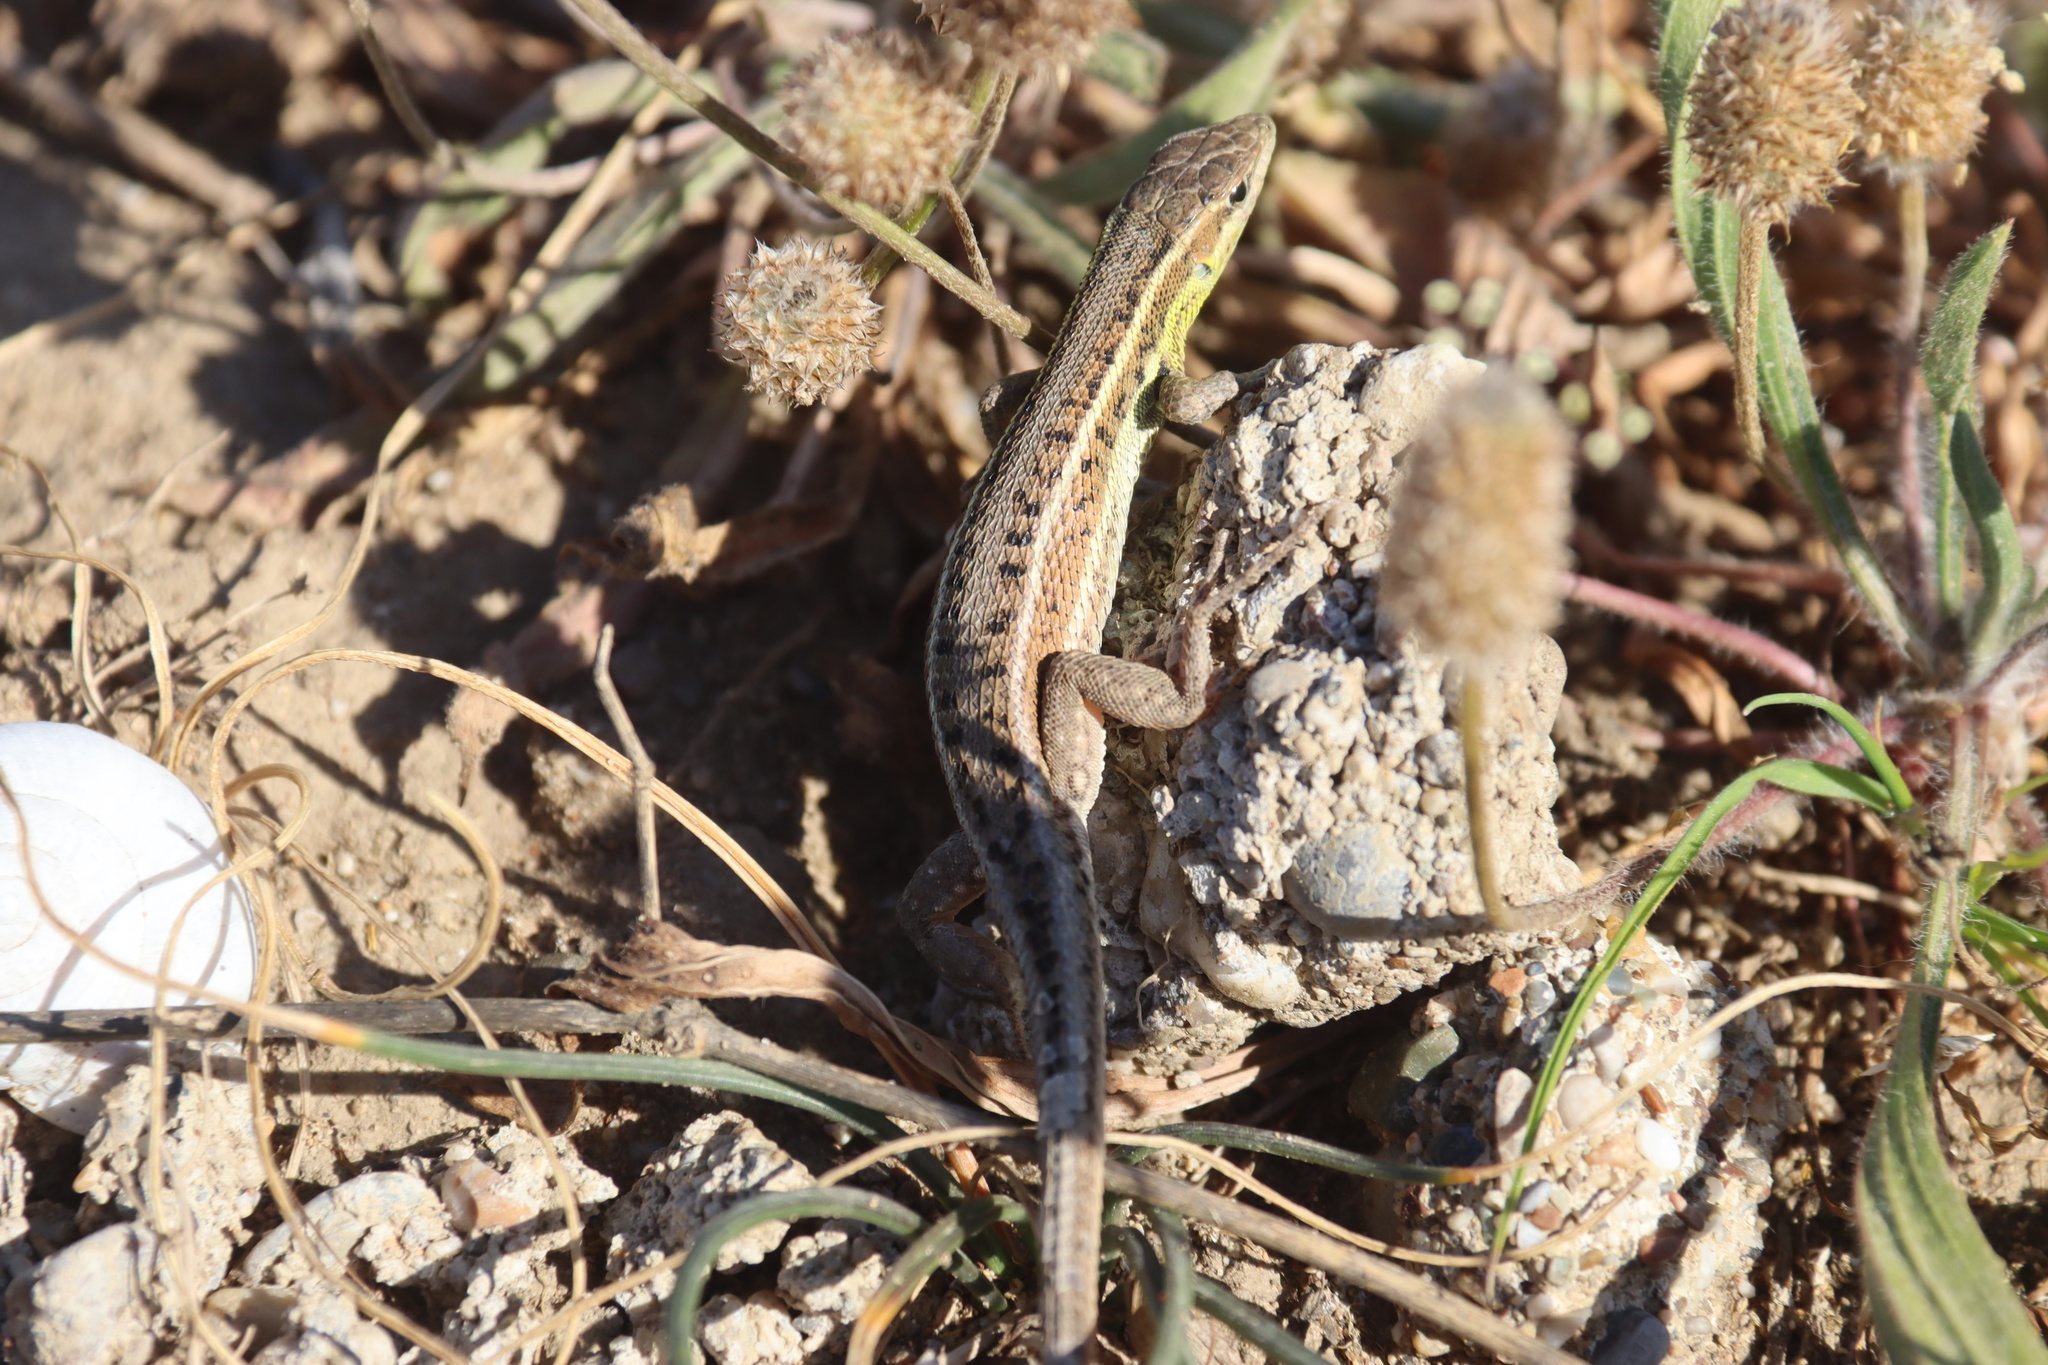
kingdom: Animalia
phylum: Chordata
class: Squamata
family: Lacertidae
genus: Ophisops
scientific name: Ophisops elegans
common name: Snake-eyed lizard
